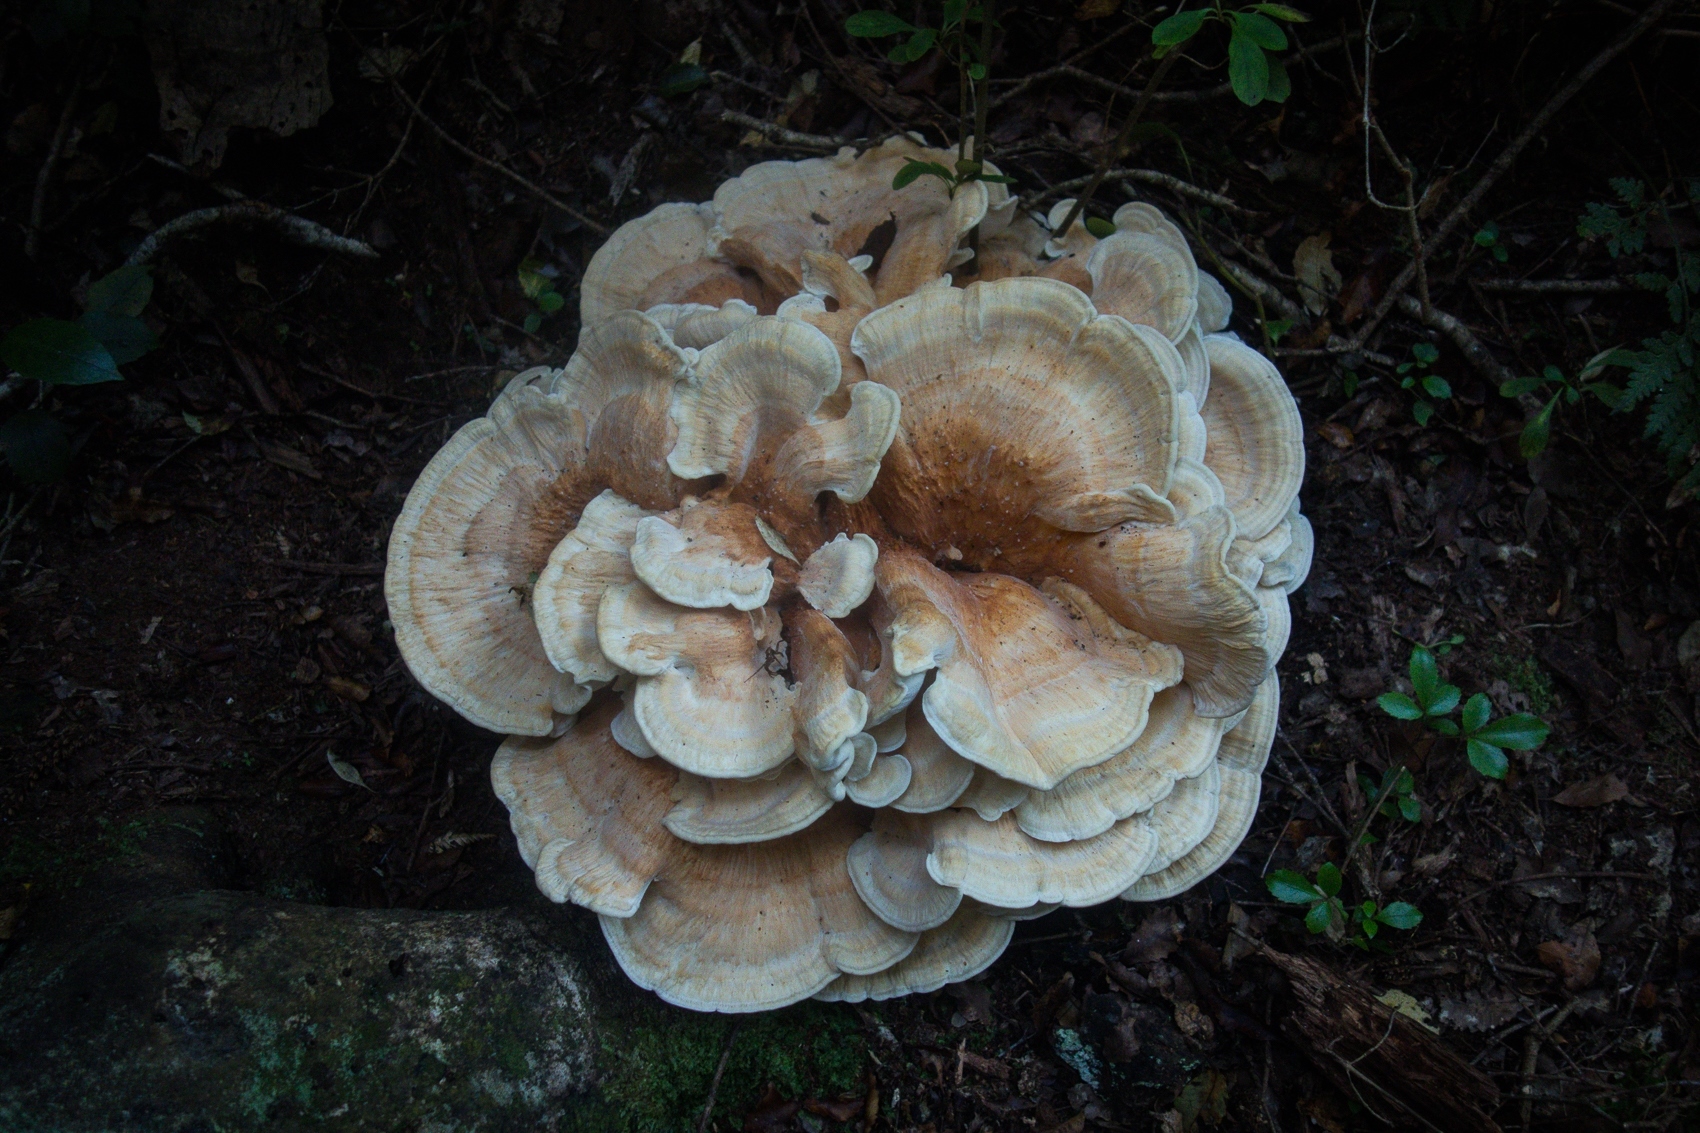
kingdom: Fungi
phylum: Basidiomycota
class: Agaricomycetes
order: Russulales
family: Bondarzewiaceae
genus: Bondarzewia
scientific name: Bondarzewia kirkii
